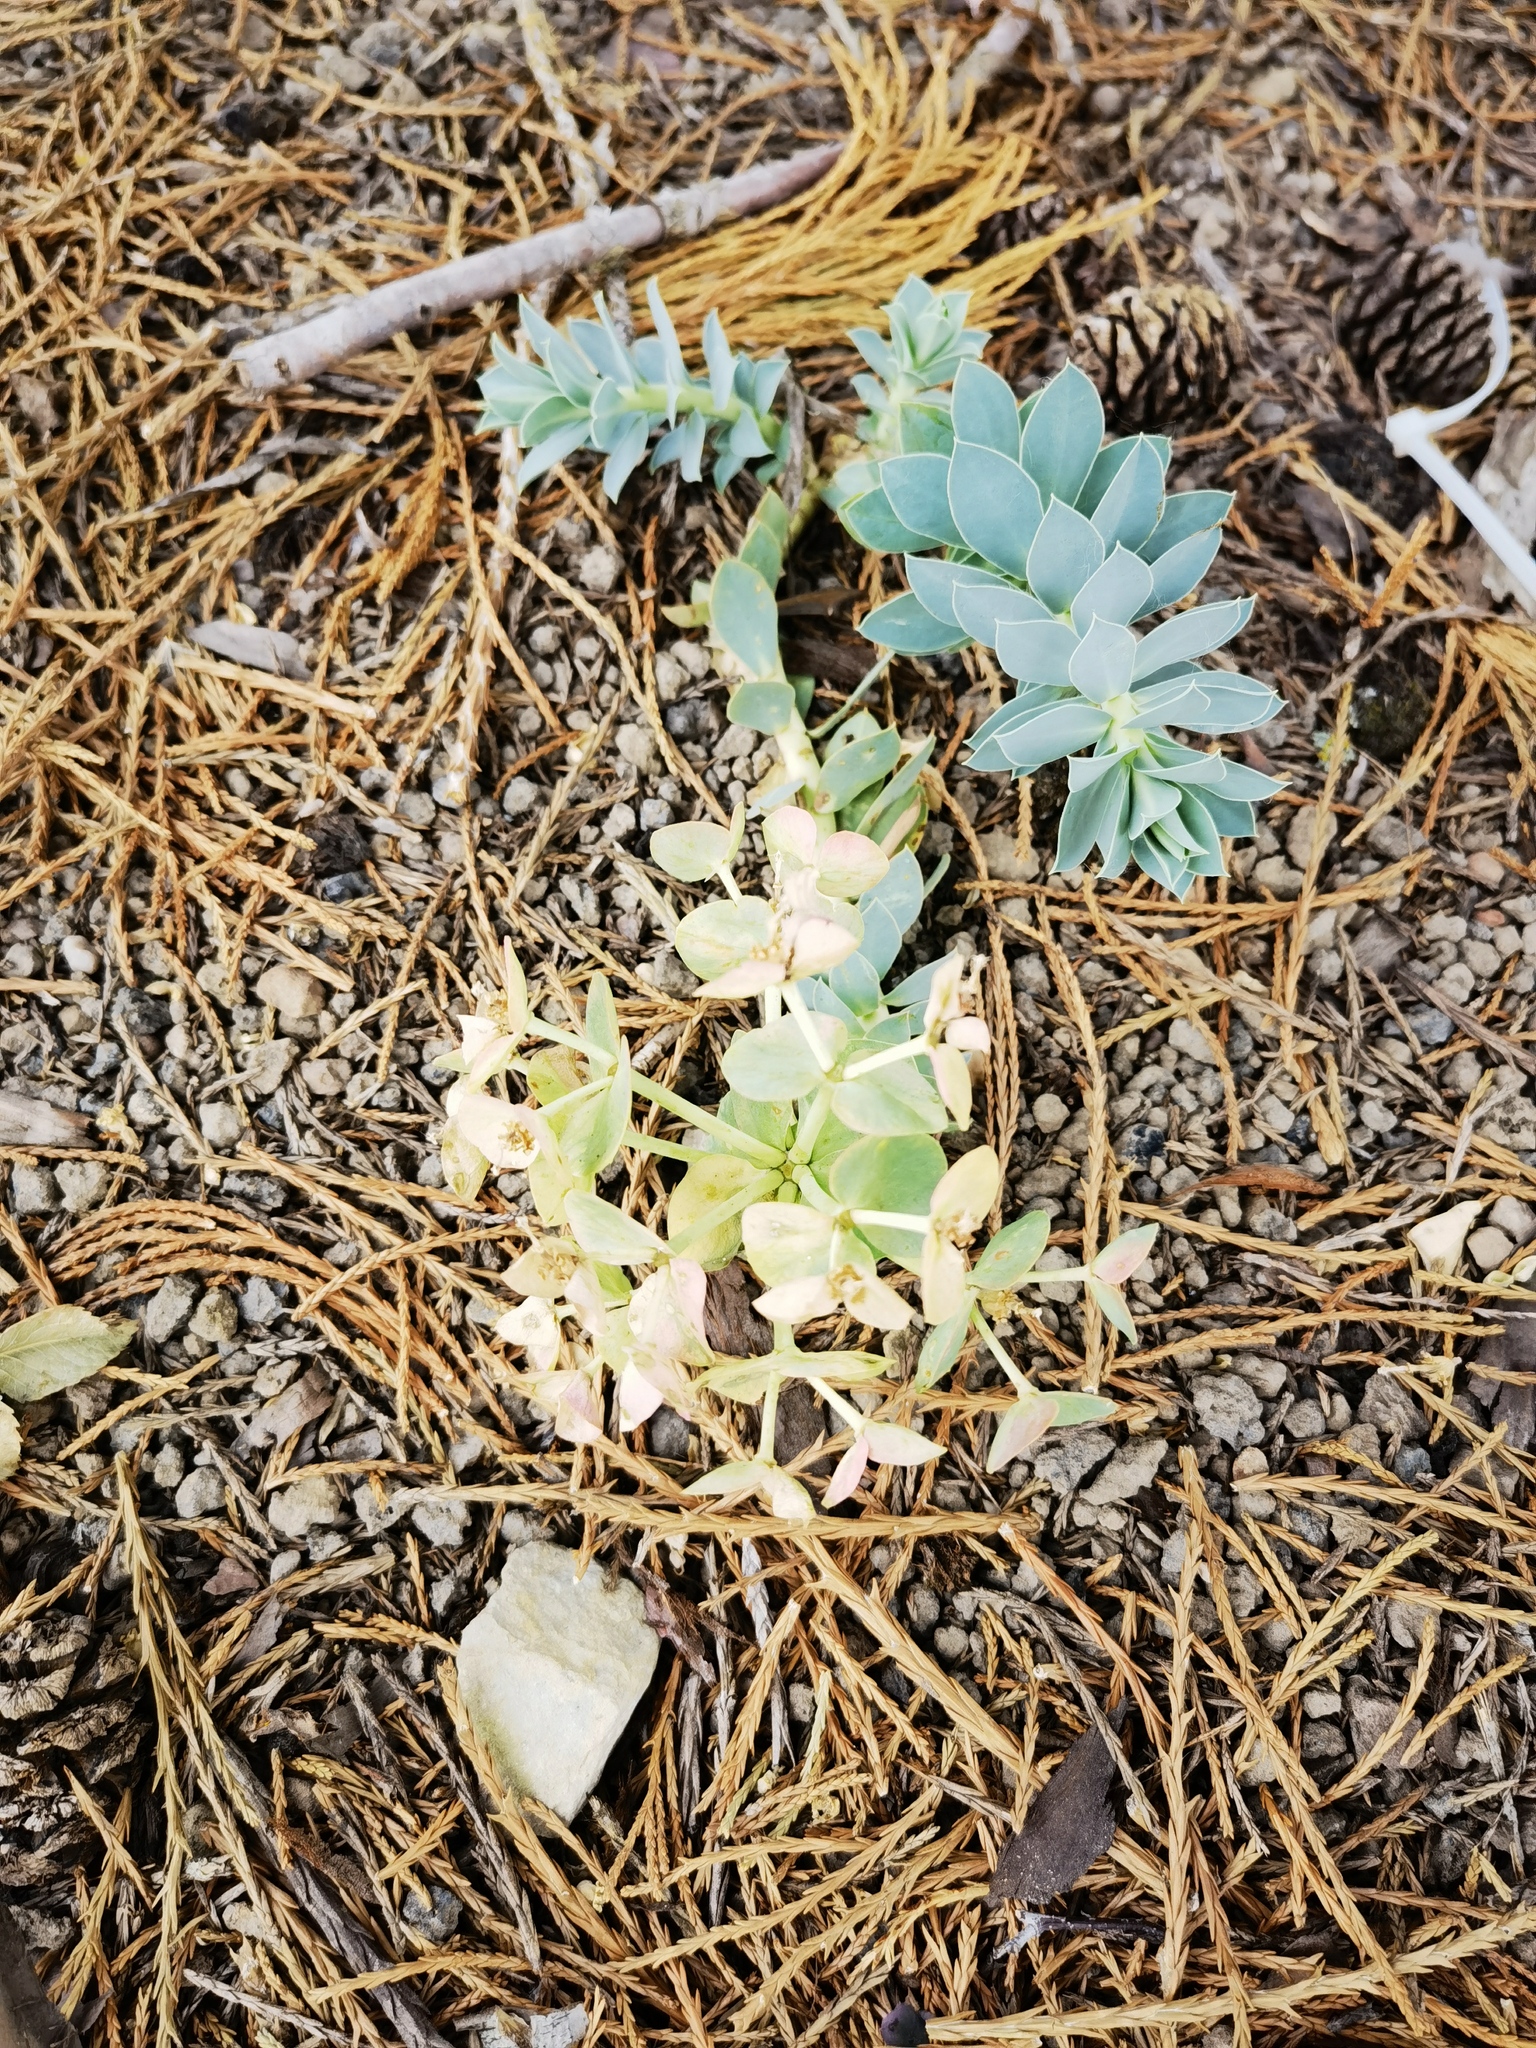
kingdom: Plantae
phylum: Tracheophyta
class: Magnoliopsida
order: Malpighiales
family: Euphorbiaceae
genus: Euphorbia
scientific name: Euphorbia myrsinites
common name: Myrtle spurge
